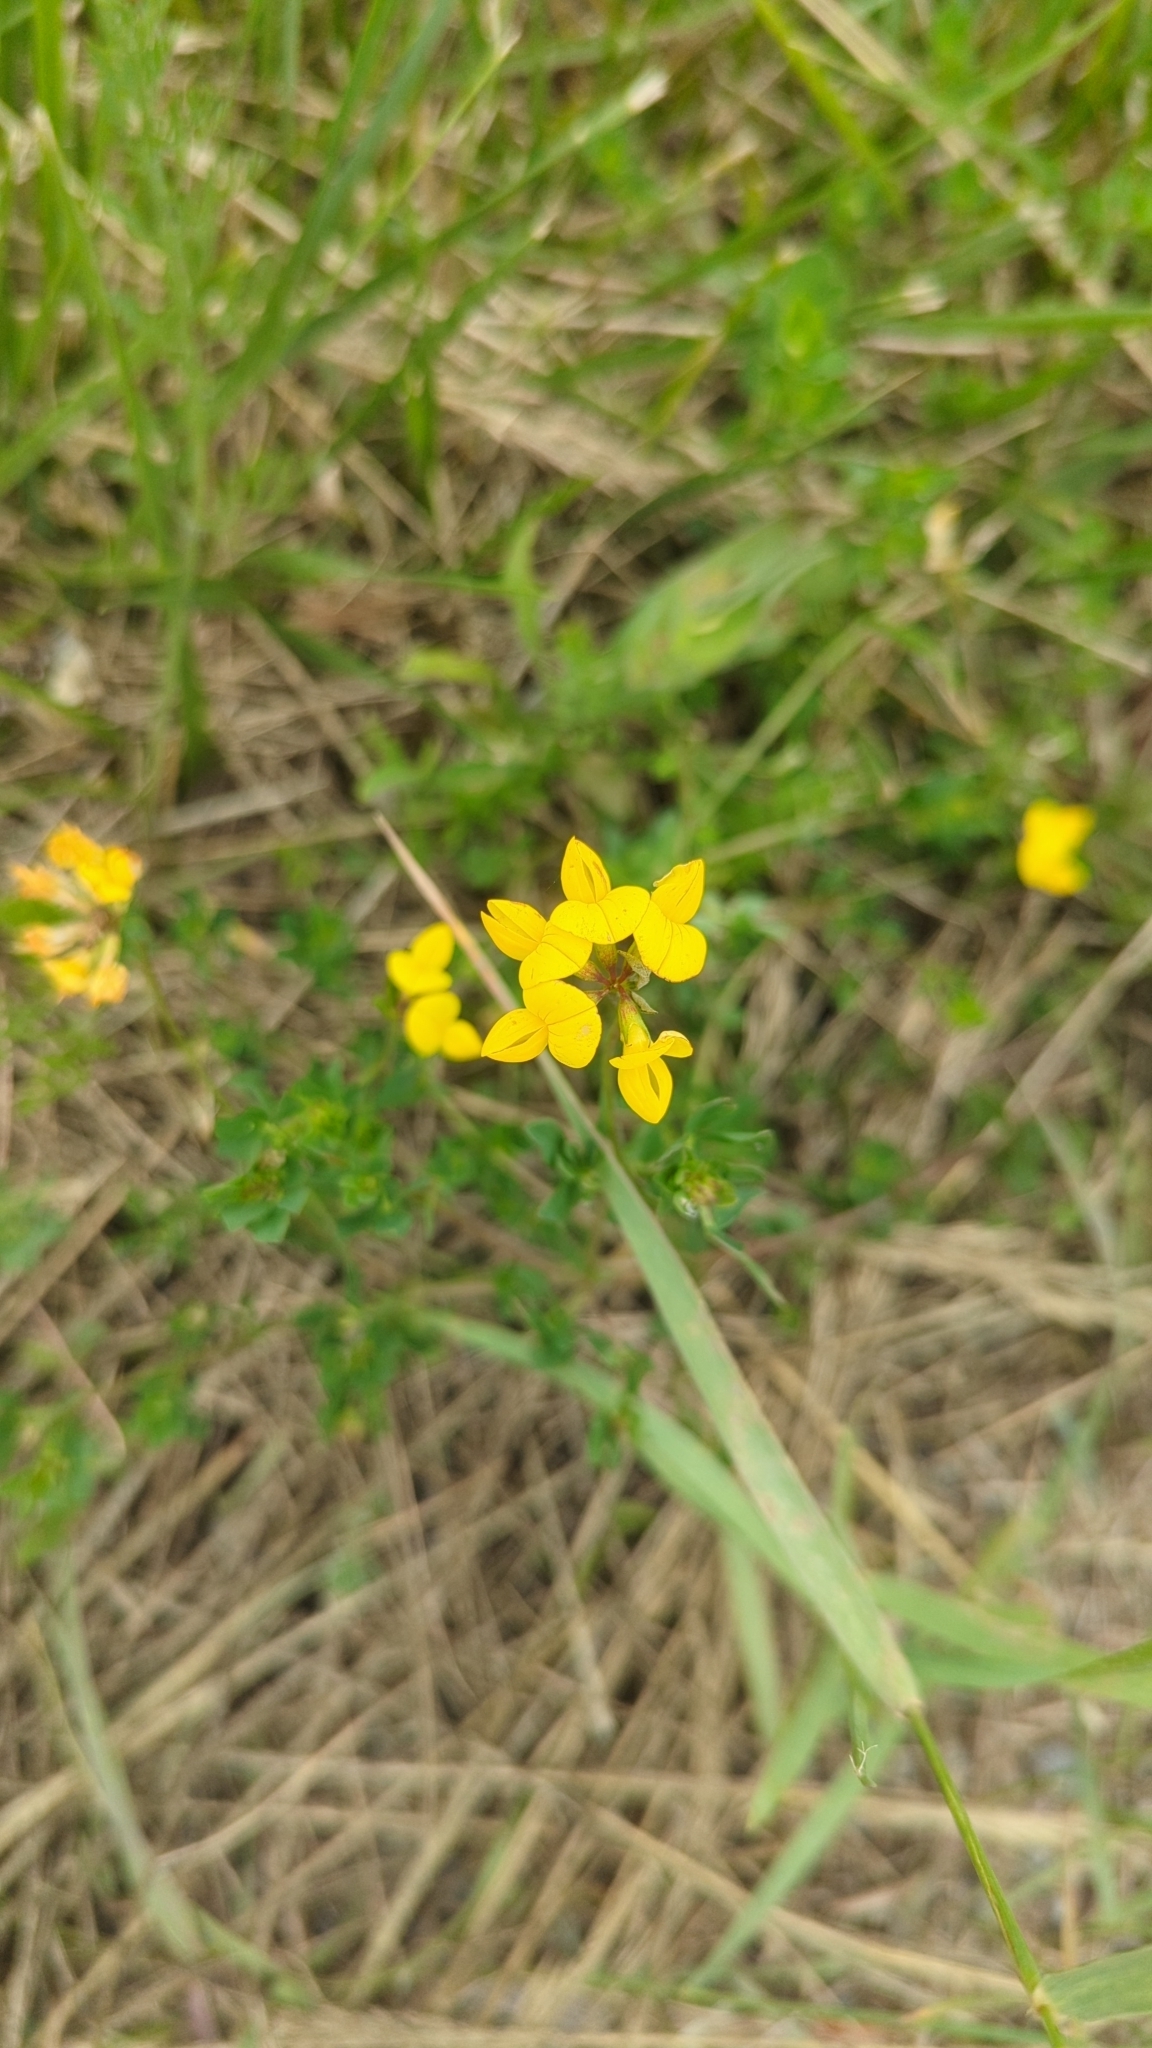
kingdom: Plantae
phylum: Tracheophyta
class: Magnoliopsida
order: Fabales
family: Fabaceae
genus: Lotus
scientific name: Lotus corniculatus
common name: Common bird's-foot-trefoil
